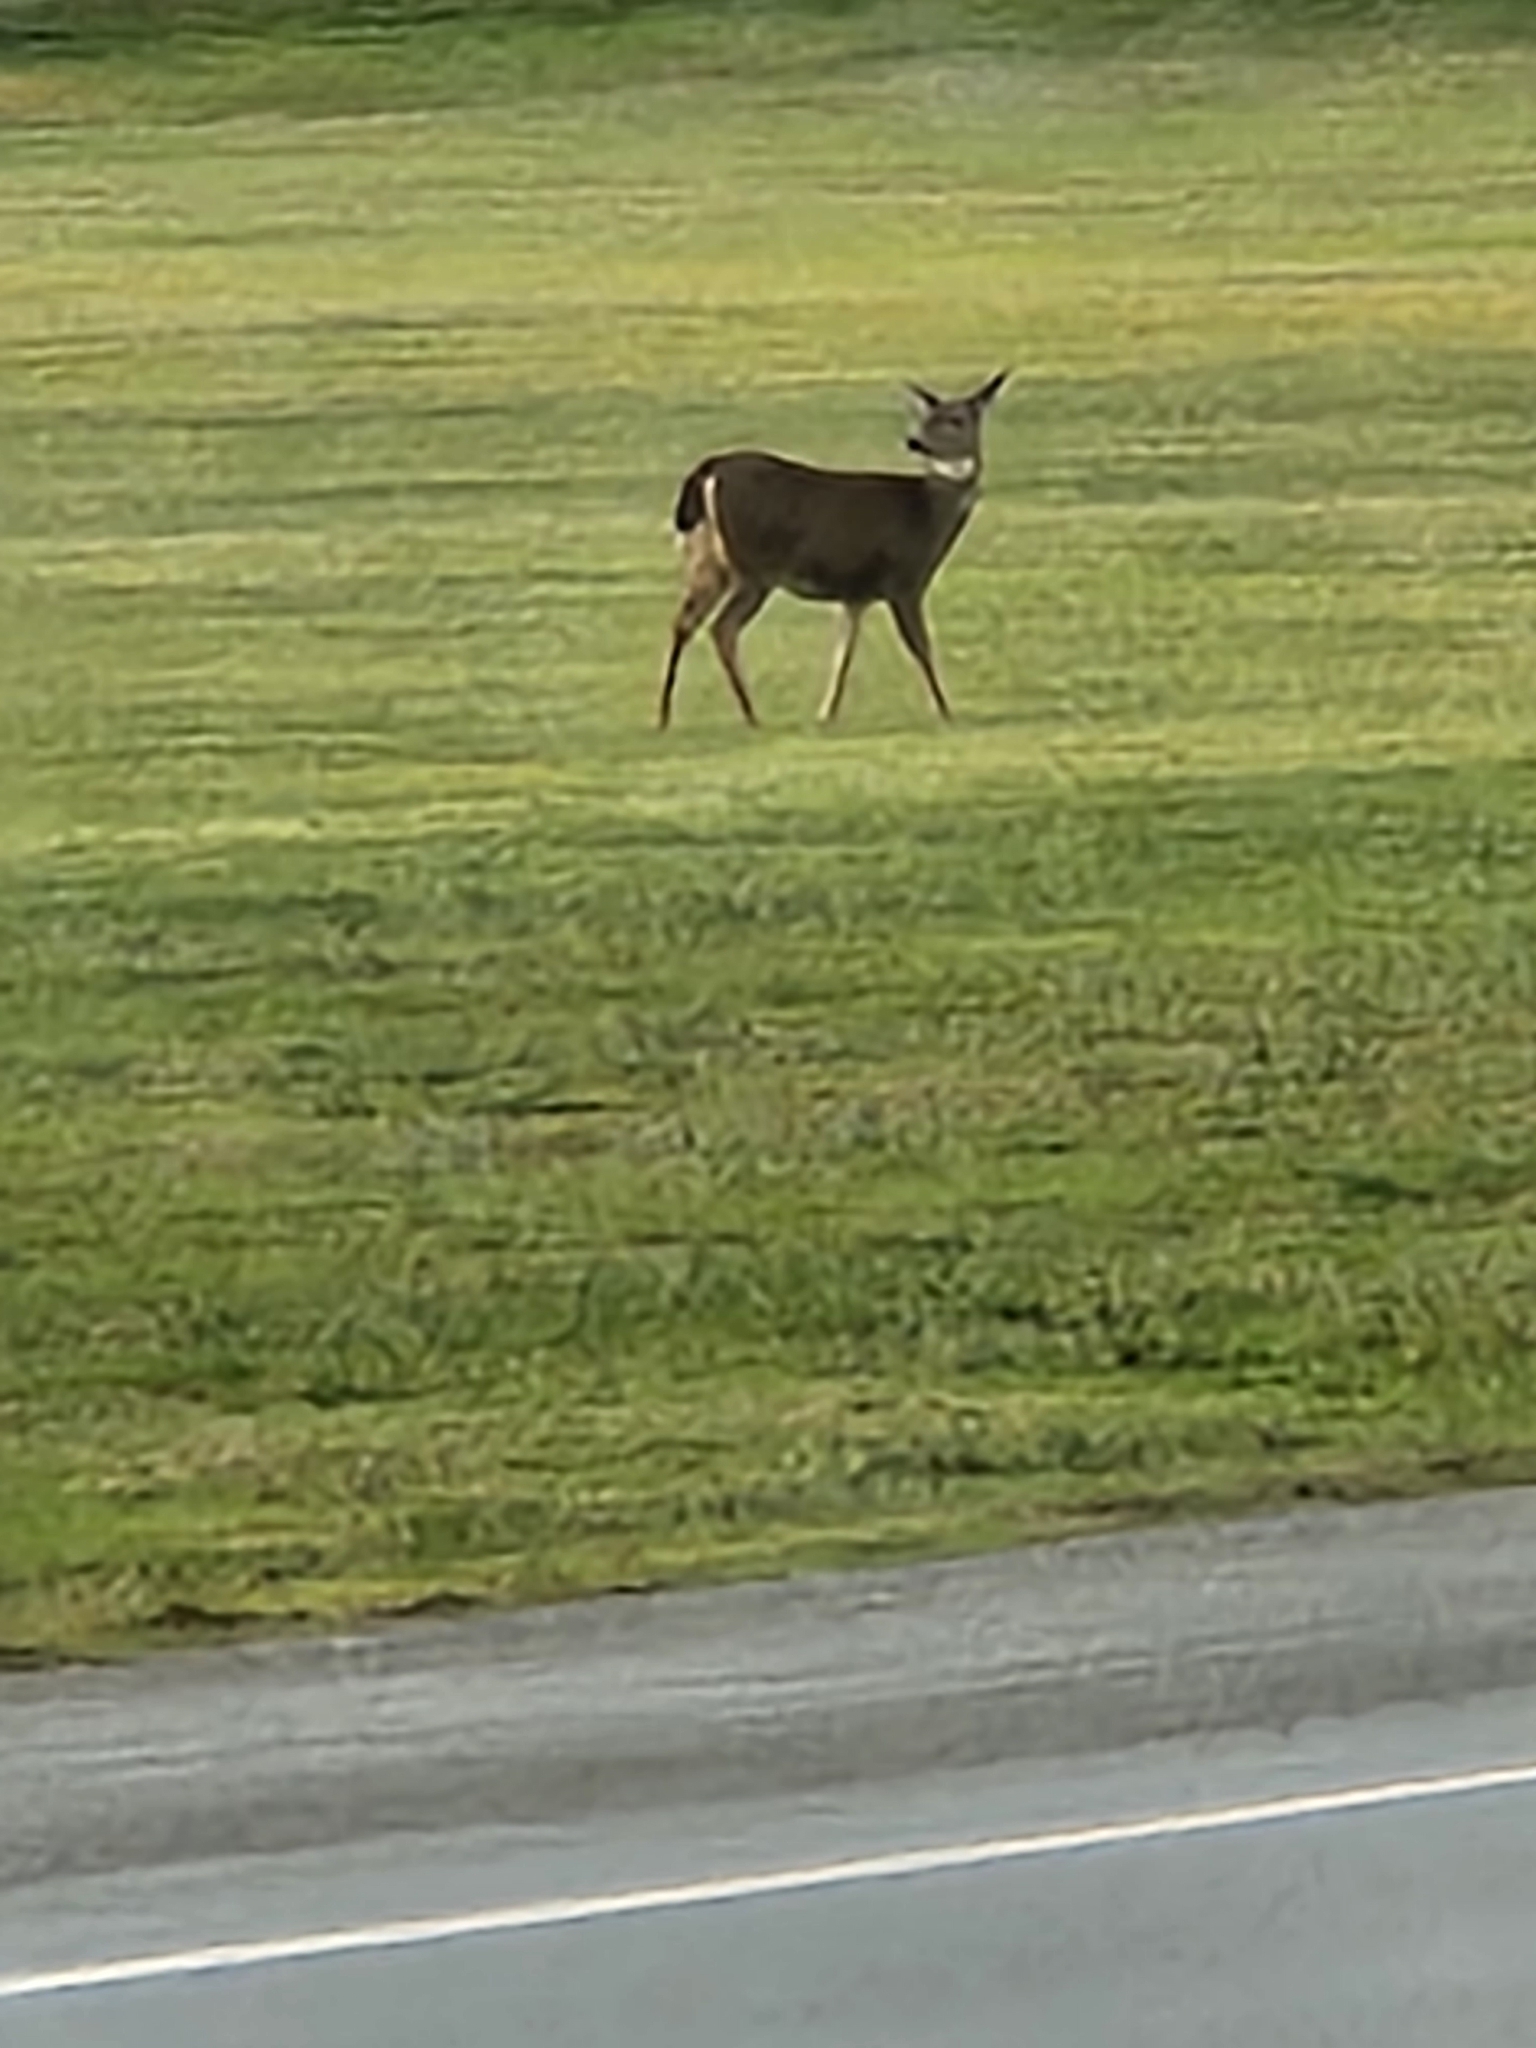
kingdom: Animalia
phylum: Chordata
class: Mammalia
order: Artiodactyla
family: Cervidae
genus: Odocoileus
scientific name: Odocoileus hemionus
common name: Mule deer
